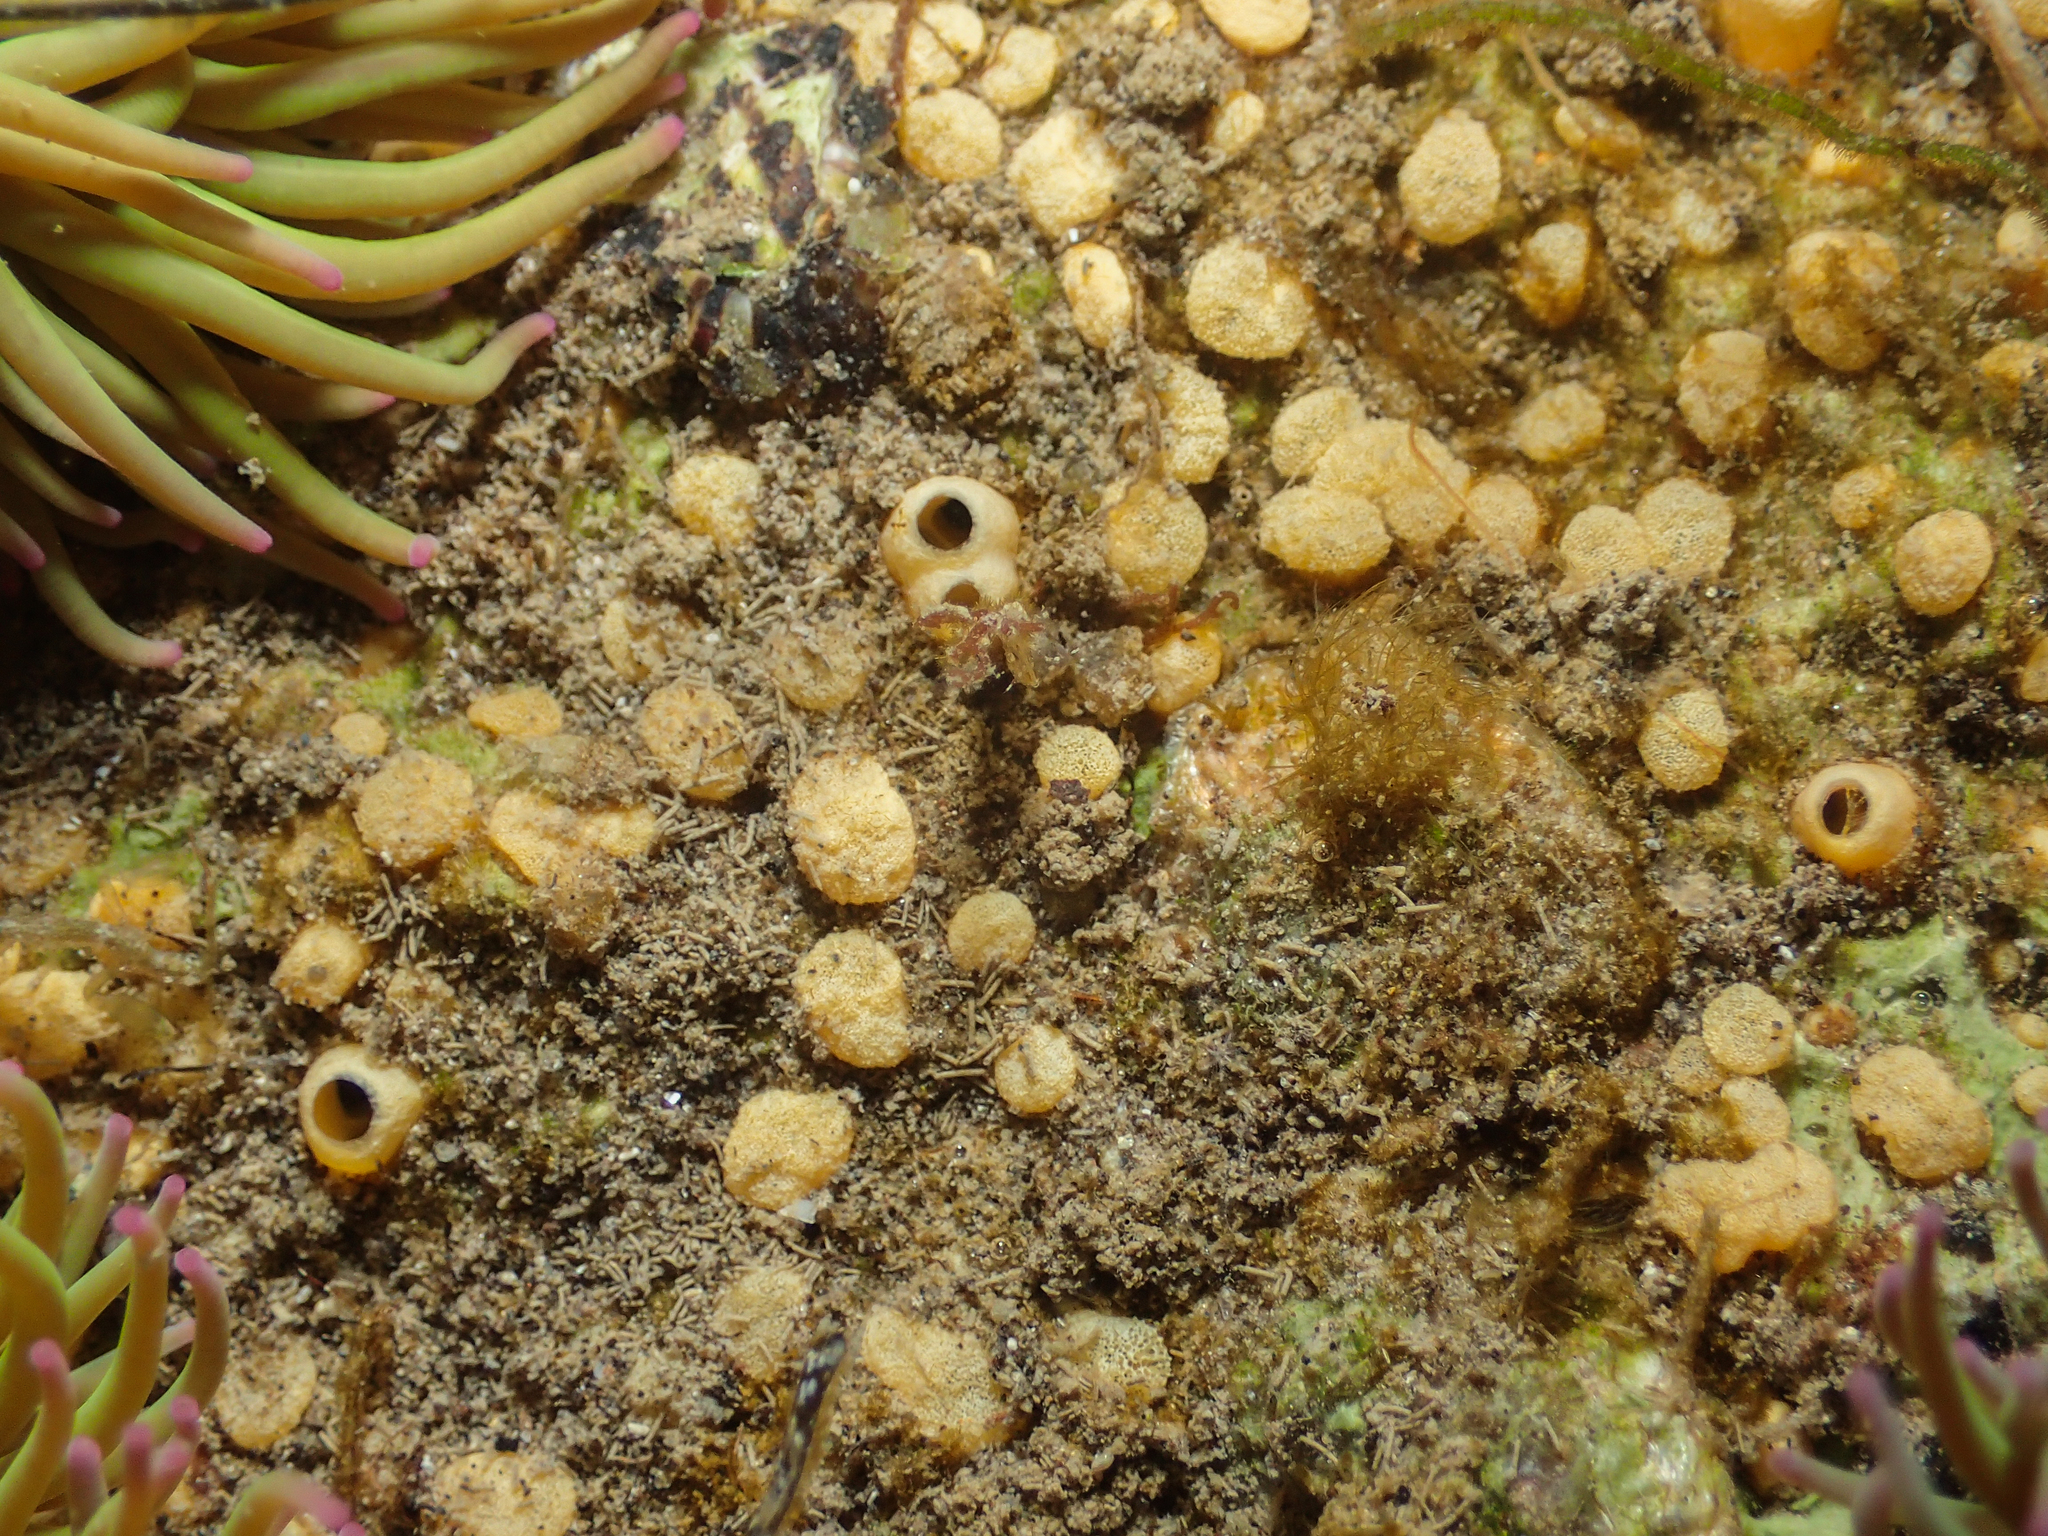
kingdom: Animalia
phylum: Porifera
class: Demospongiae
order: Clionaida
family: Clionaidae
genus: Cliona
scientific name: Cliona viridis
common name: Green boring sponge
